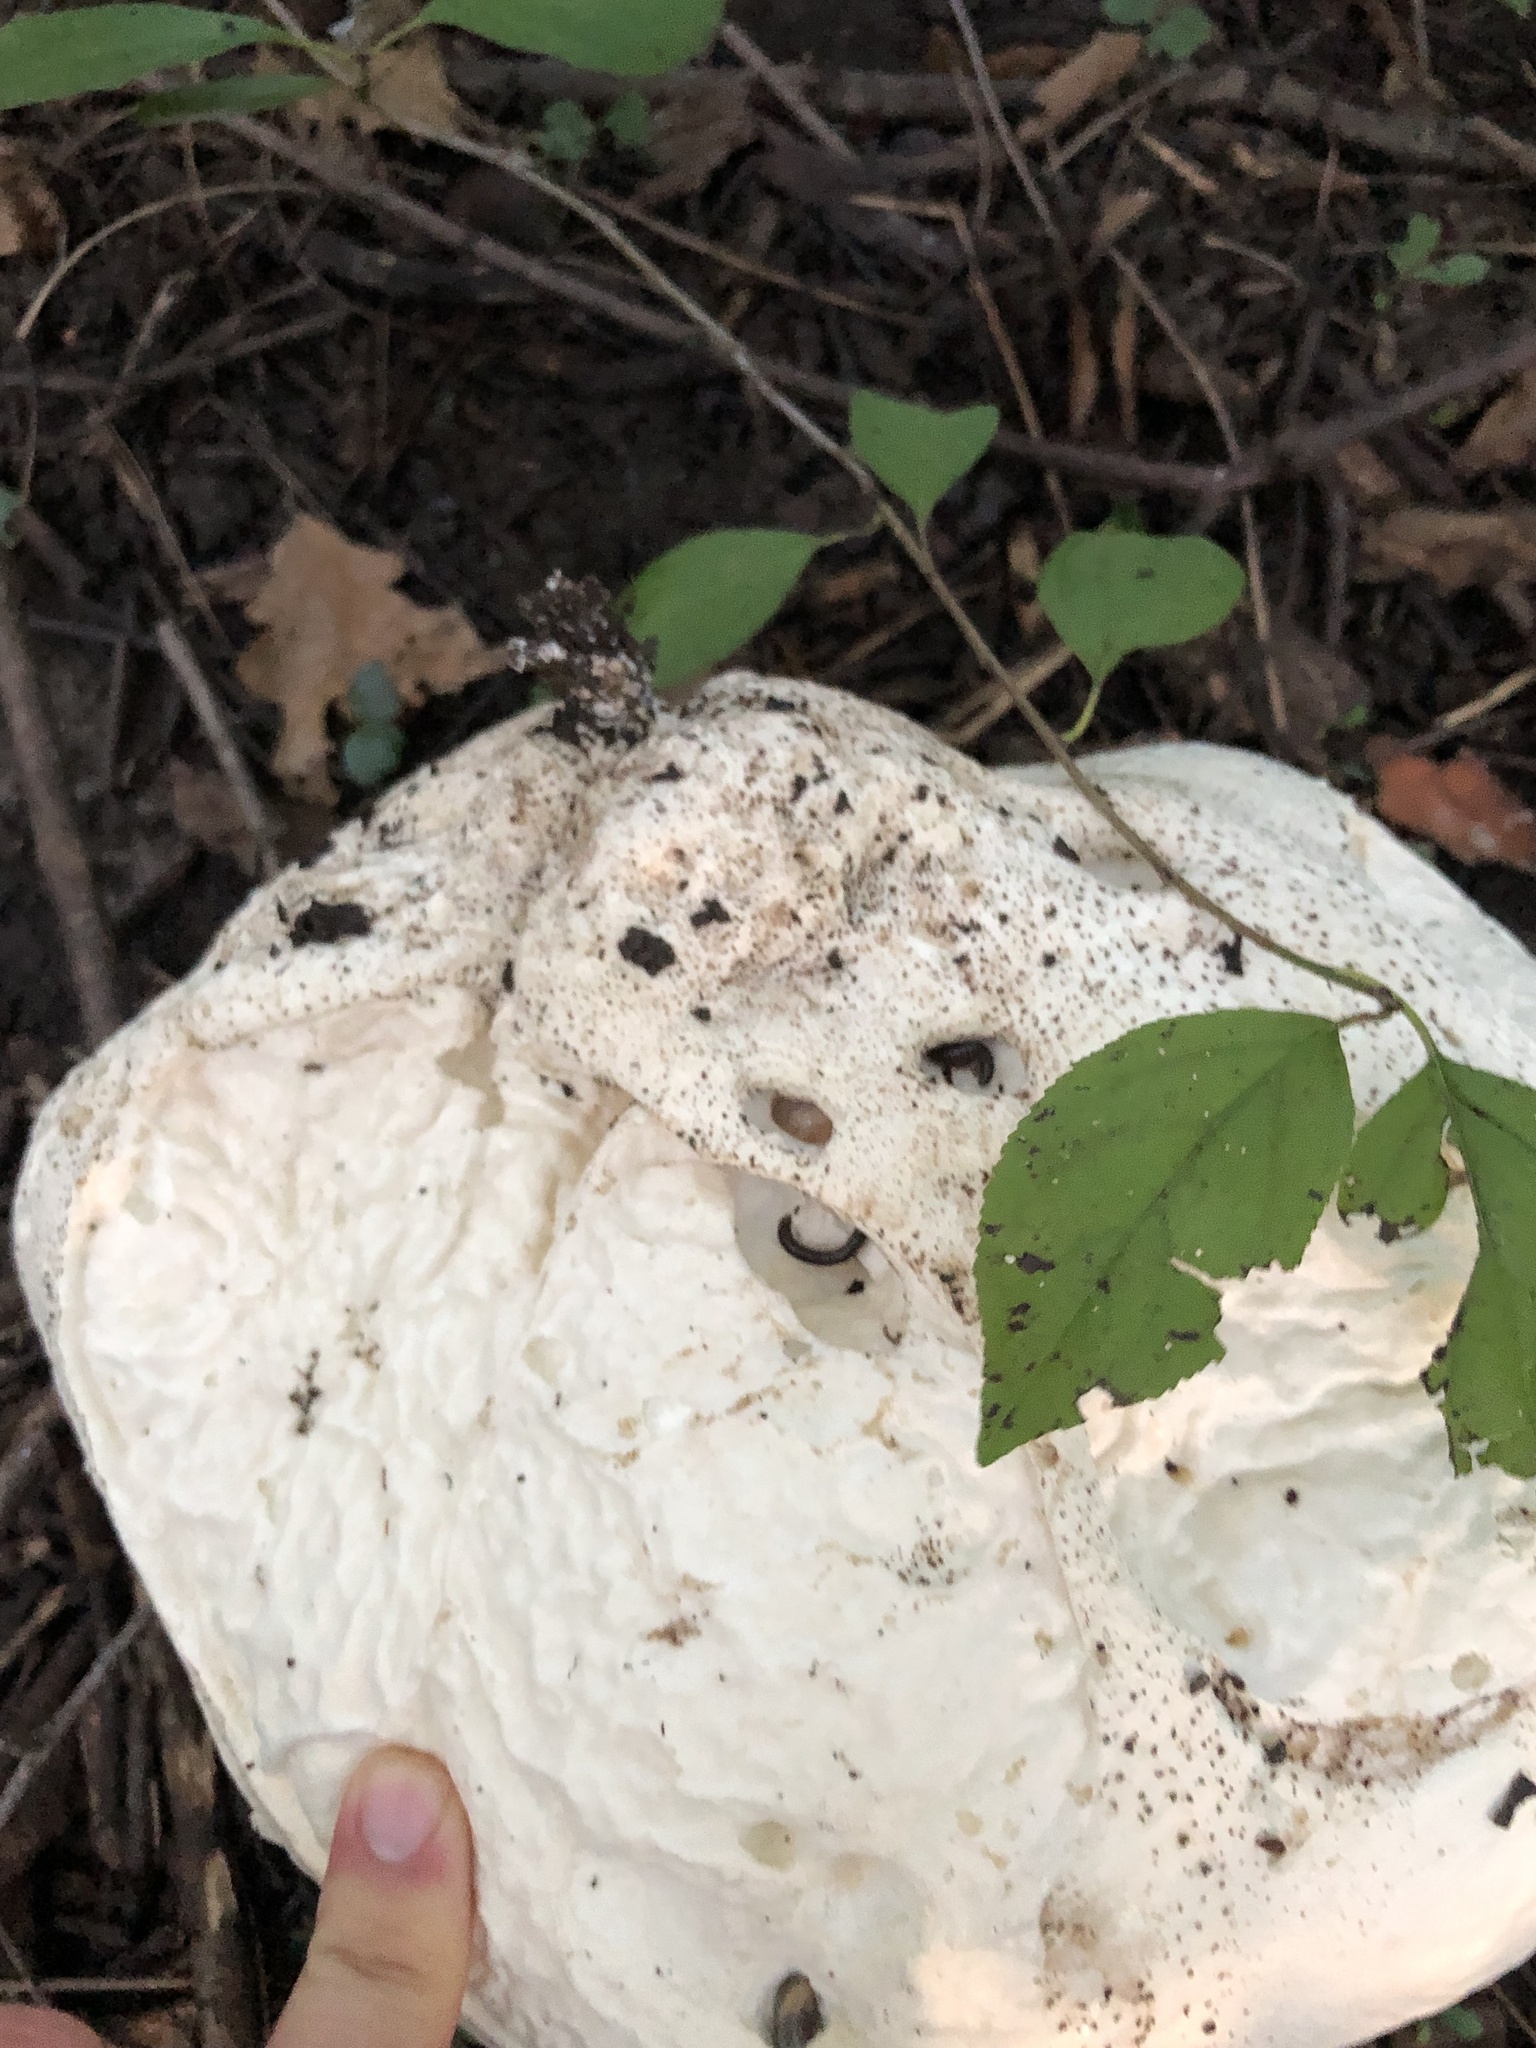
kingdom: Fungi
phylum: Basidiomycota
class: Agaricomycetes
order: Agaricales
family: Lycoperdaceae
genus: Calvatia
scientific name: Calvatia gigantea
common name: Giant puffball
